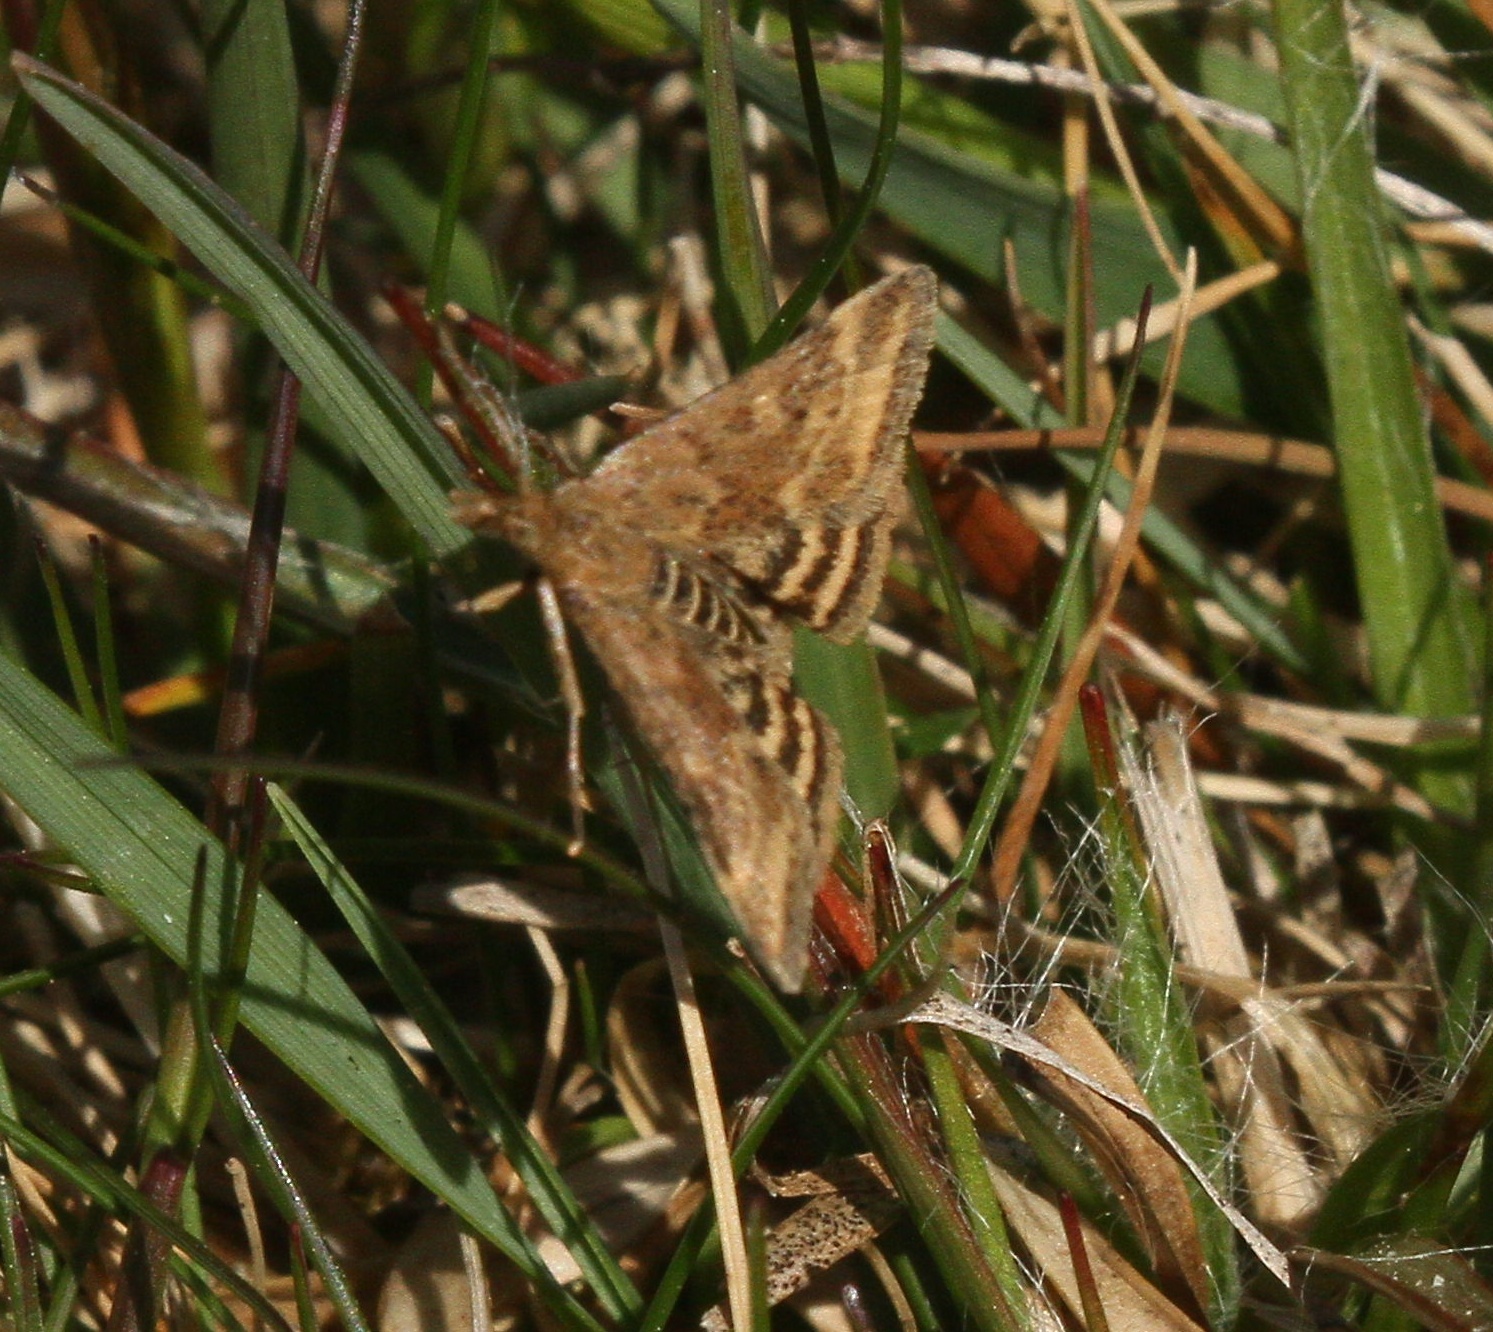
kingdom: Animalia
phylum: Arthropoda
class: Insecta
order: Lepidoptera
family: Crambidae
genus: Pyrausta
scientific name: Pyrausta despicata
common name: Straw-barred pearl
